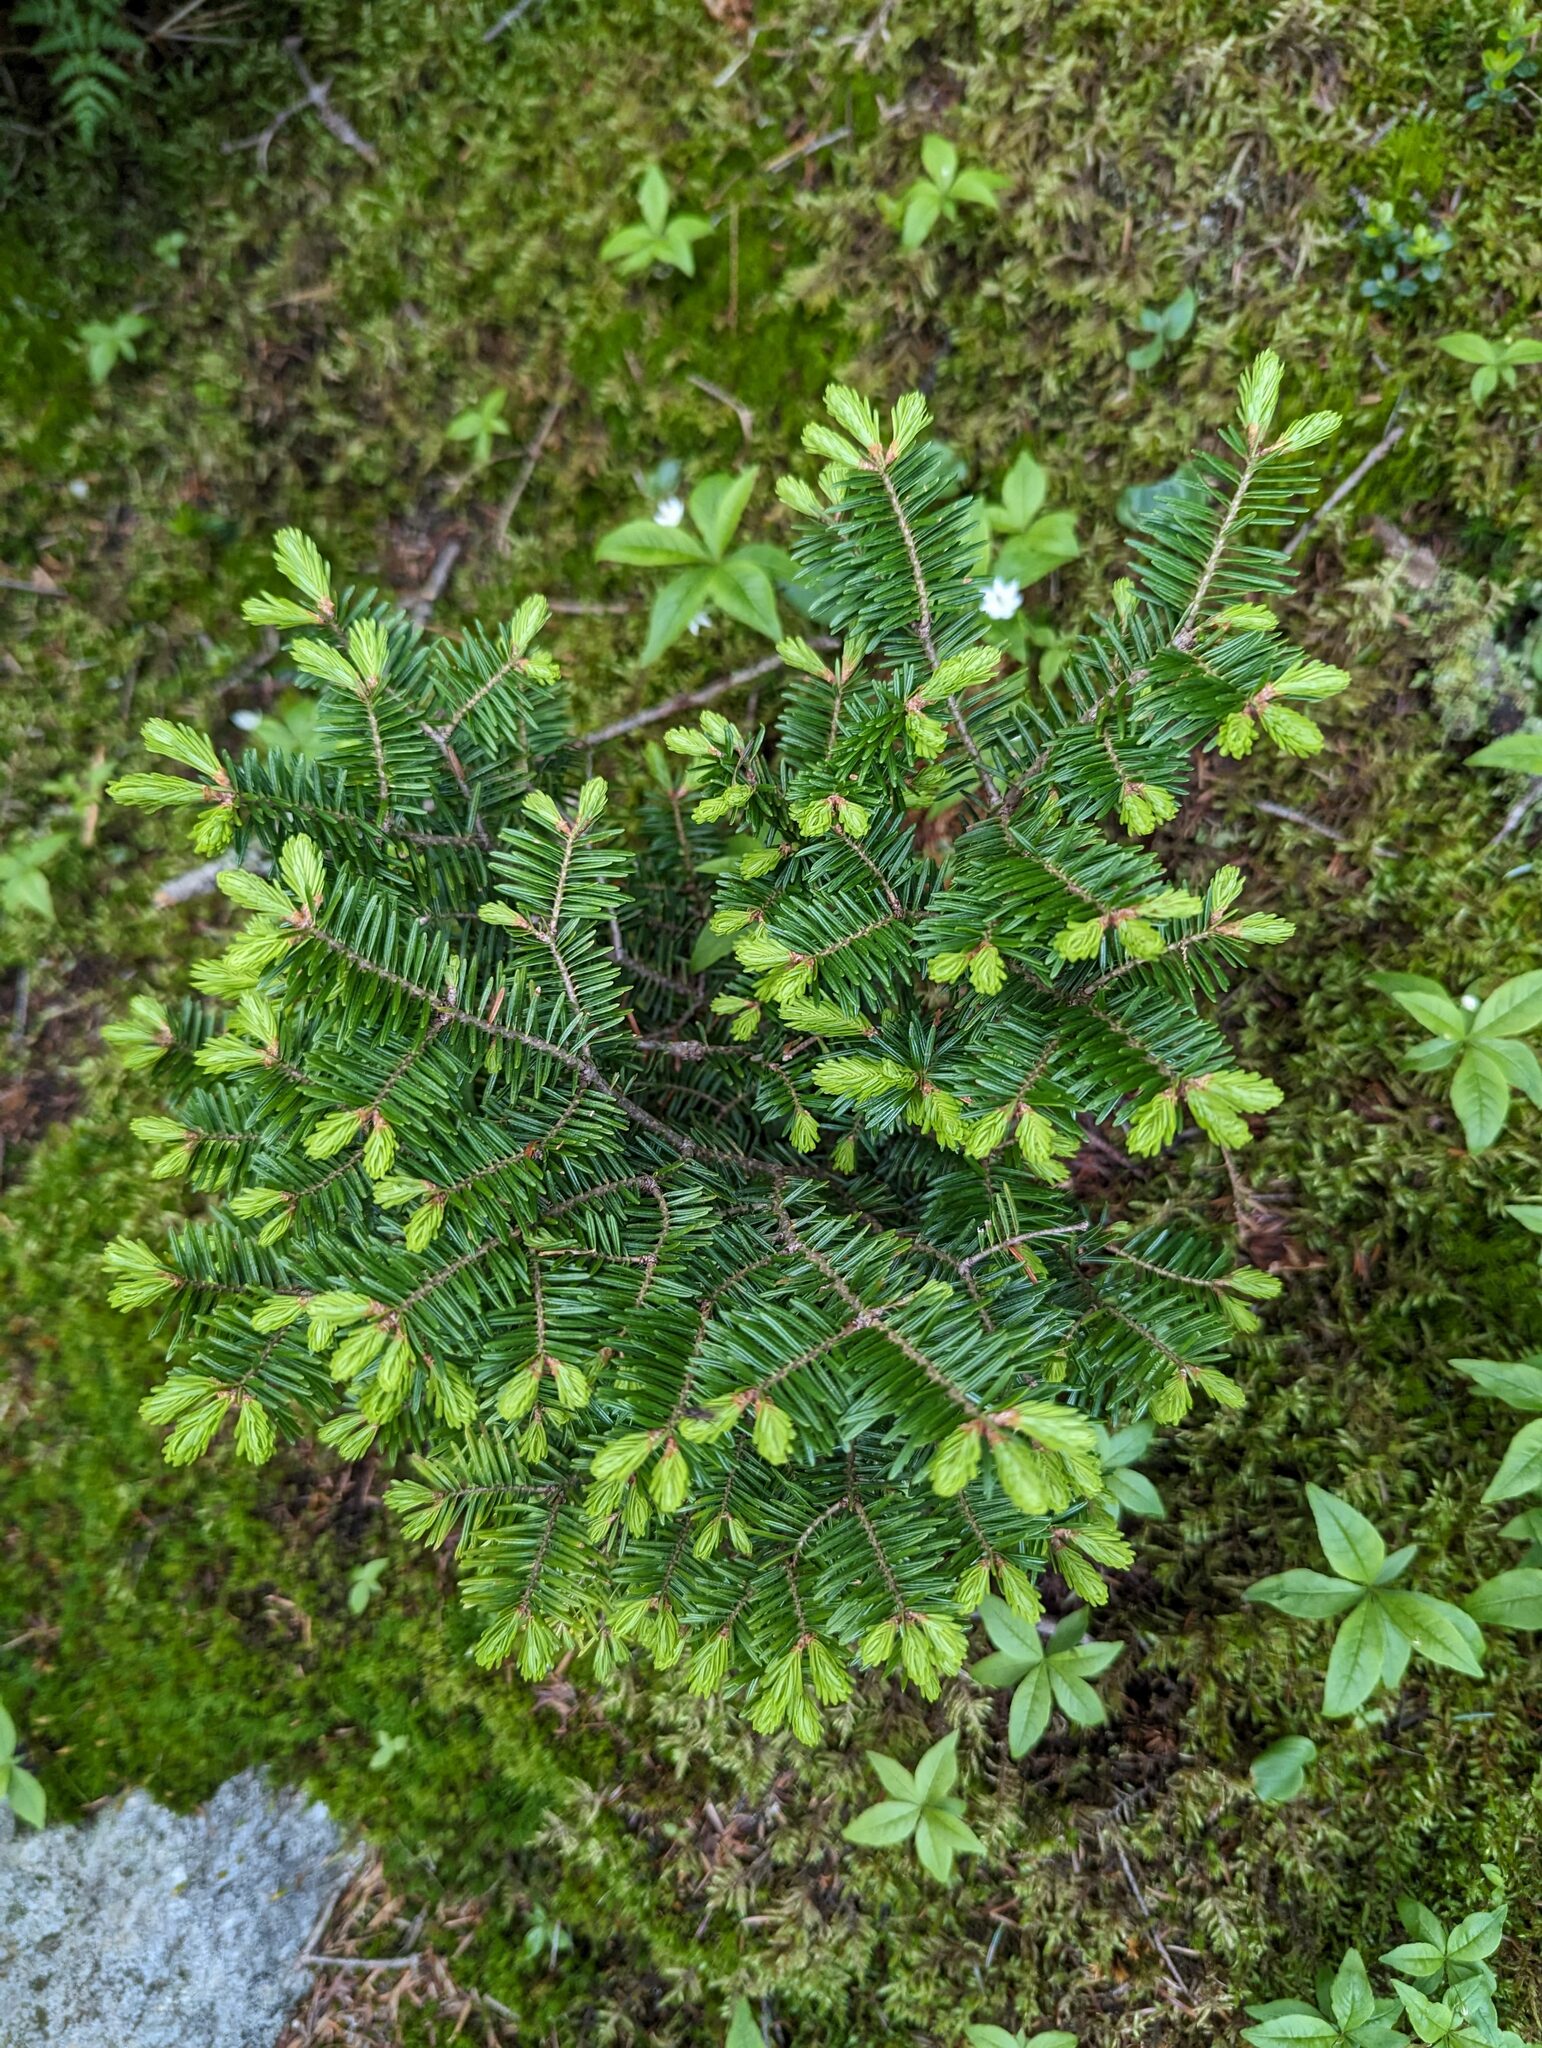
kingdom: Plantae
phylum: Tracheophyta
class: Pinopsida
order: Pinales
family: Pinaceae
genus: Abies
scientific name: Abies balsamea
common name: Balsam fir
